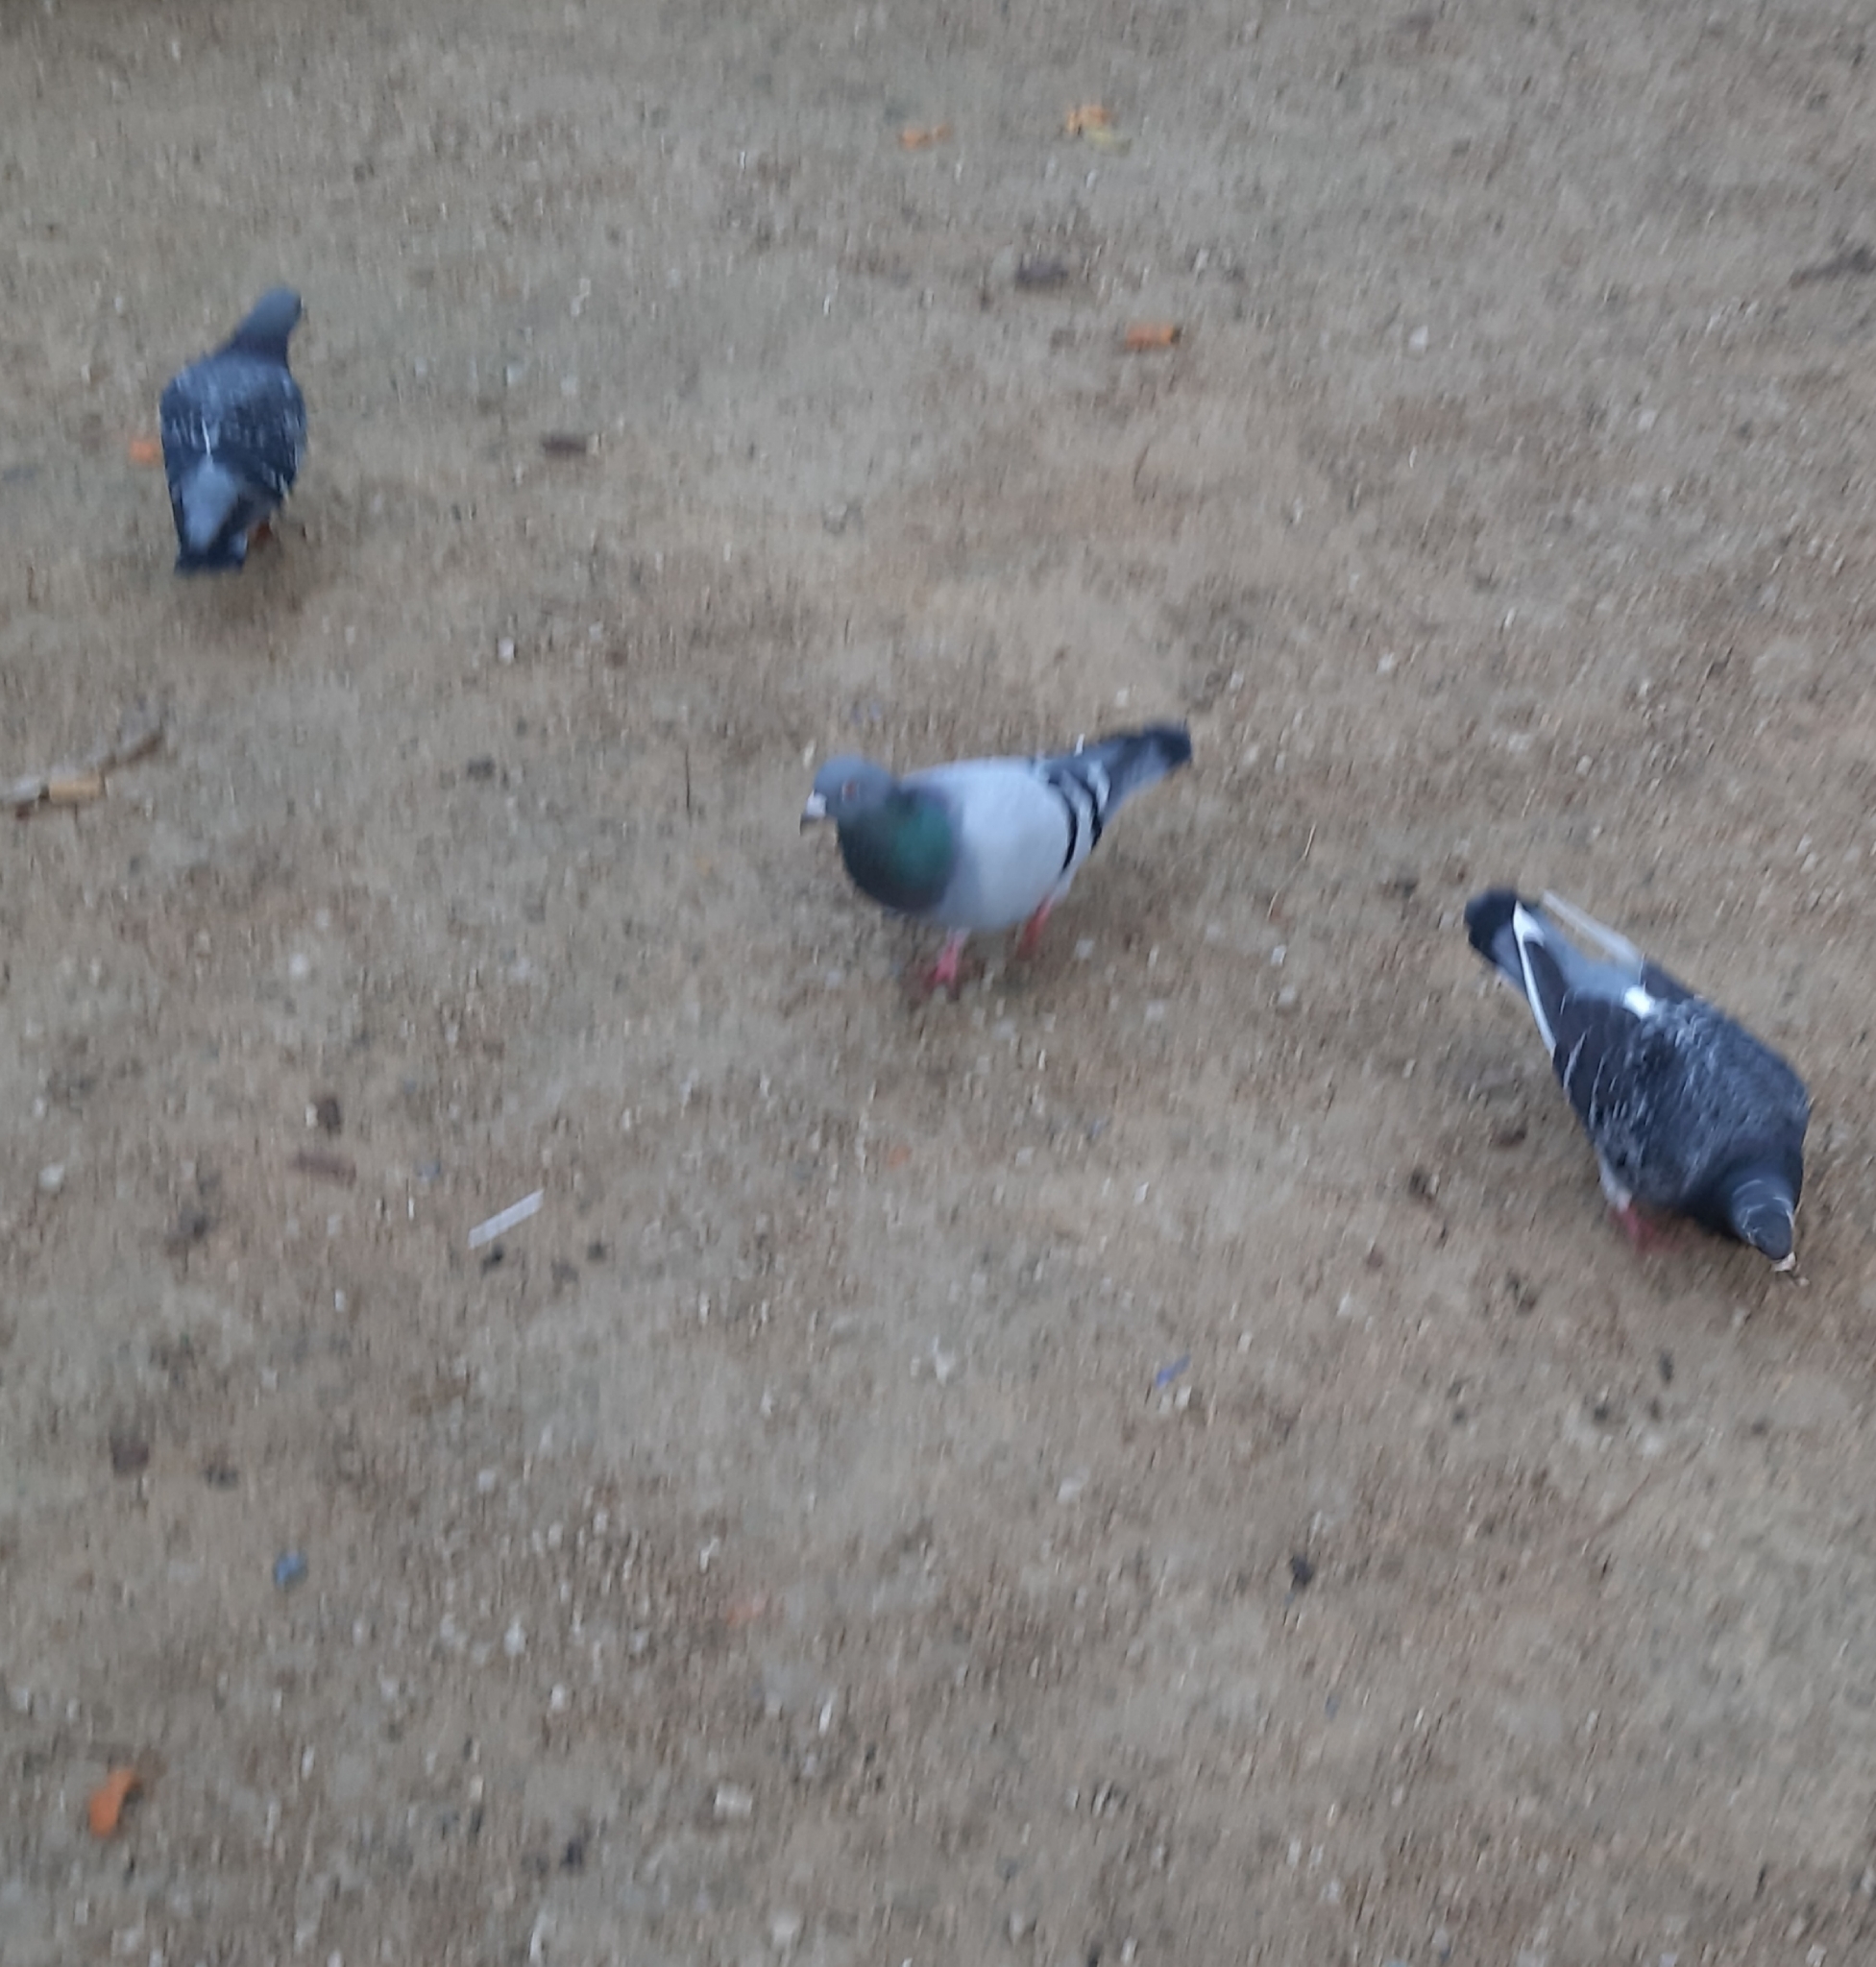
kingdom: Animalia
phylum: Chordata
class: Aves
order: Columbiformes
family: Columbidae
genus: Columba
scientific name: Columba livia
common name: Rock pigeon
